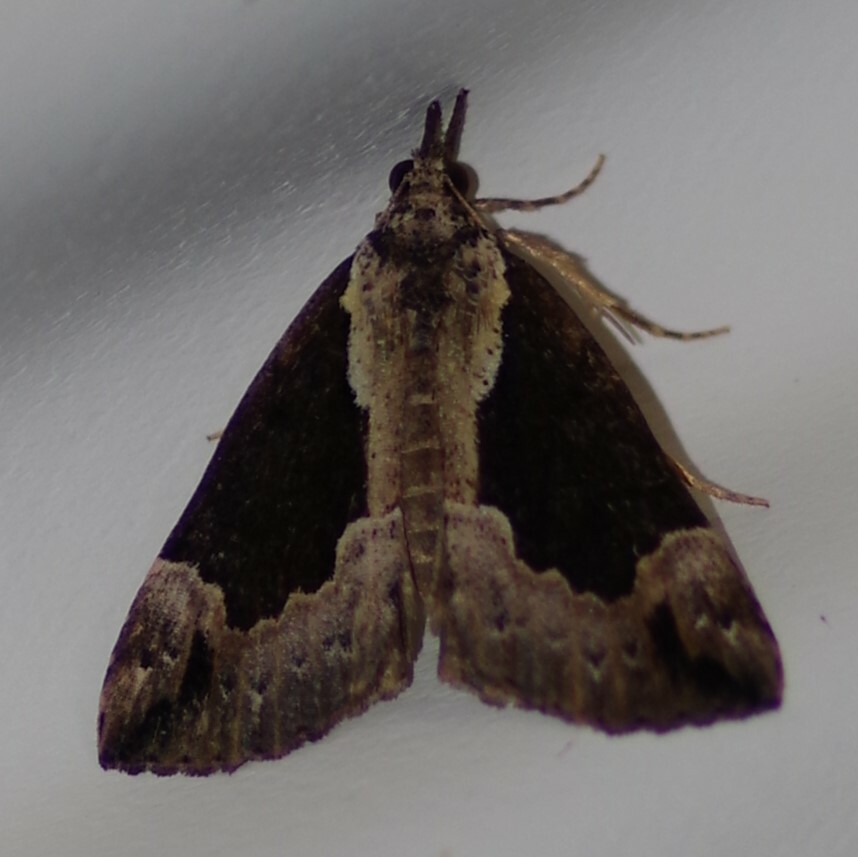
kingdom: Animalia
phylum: Arthropoda
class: Insecta
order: Lepidoptera
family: Erebidae
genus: Hypena
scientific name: Hypena baltimoralis
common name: Baltimore snout
